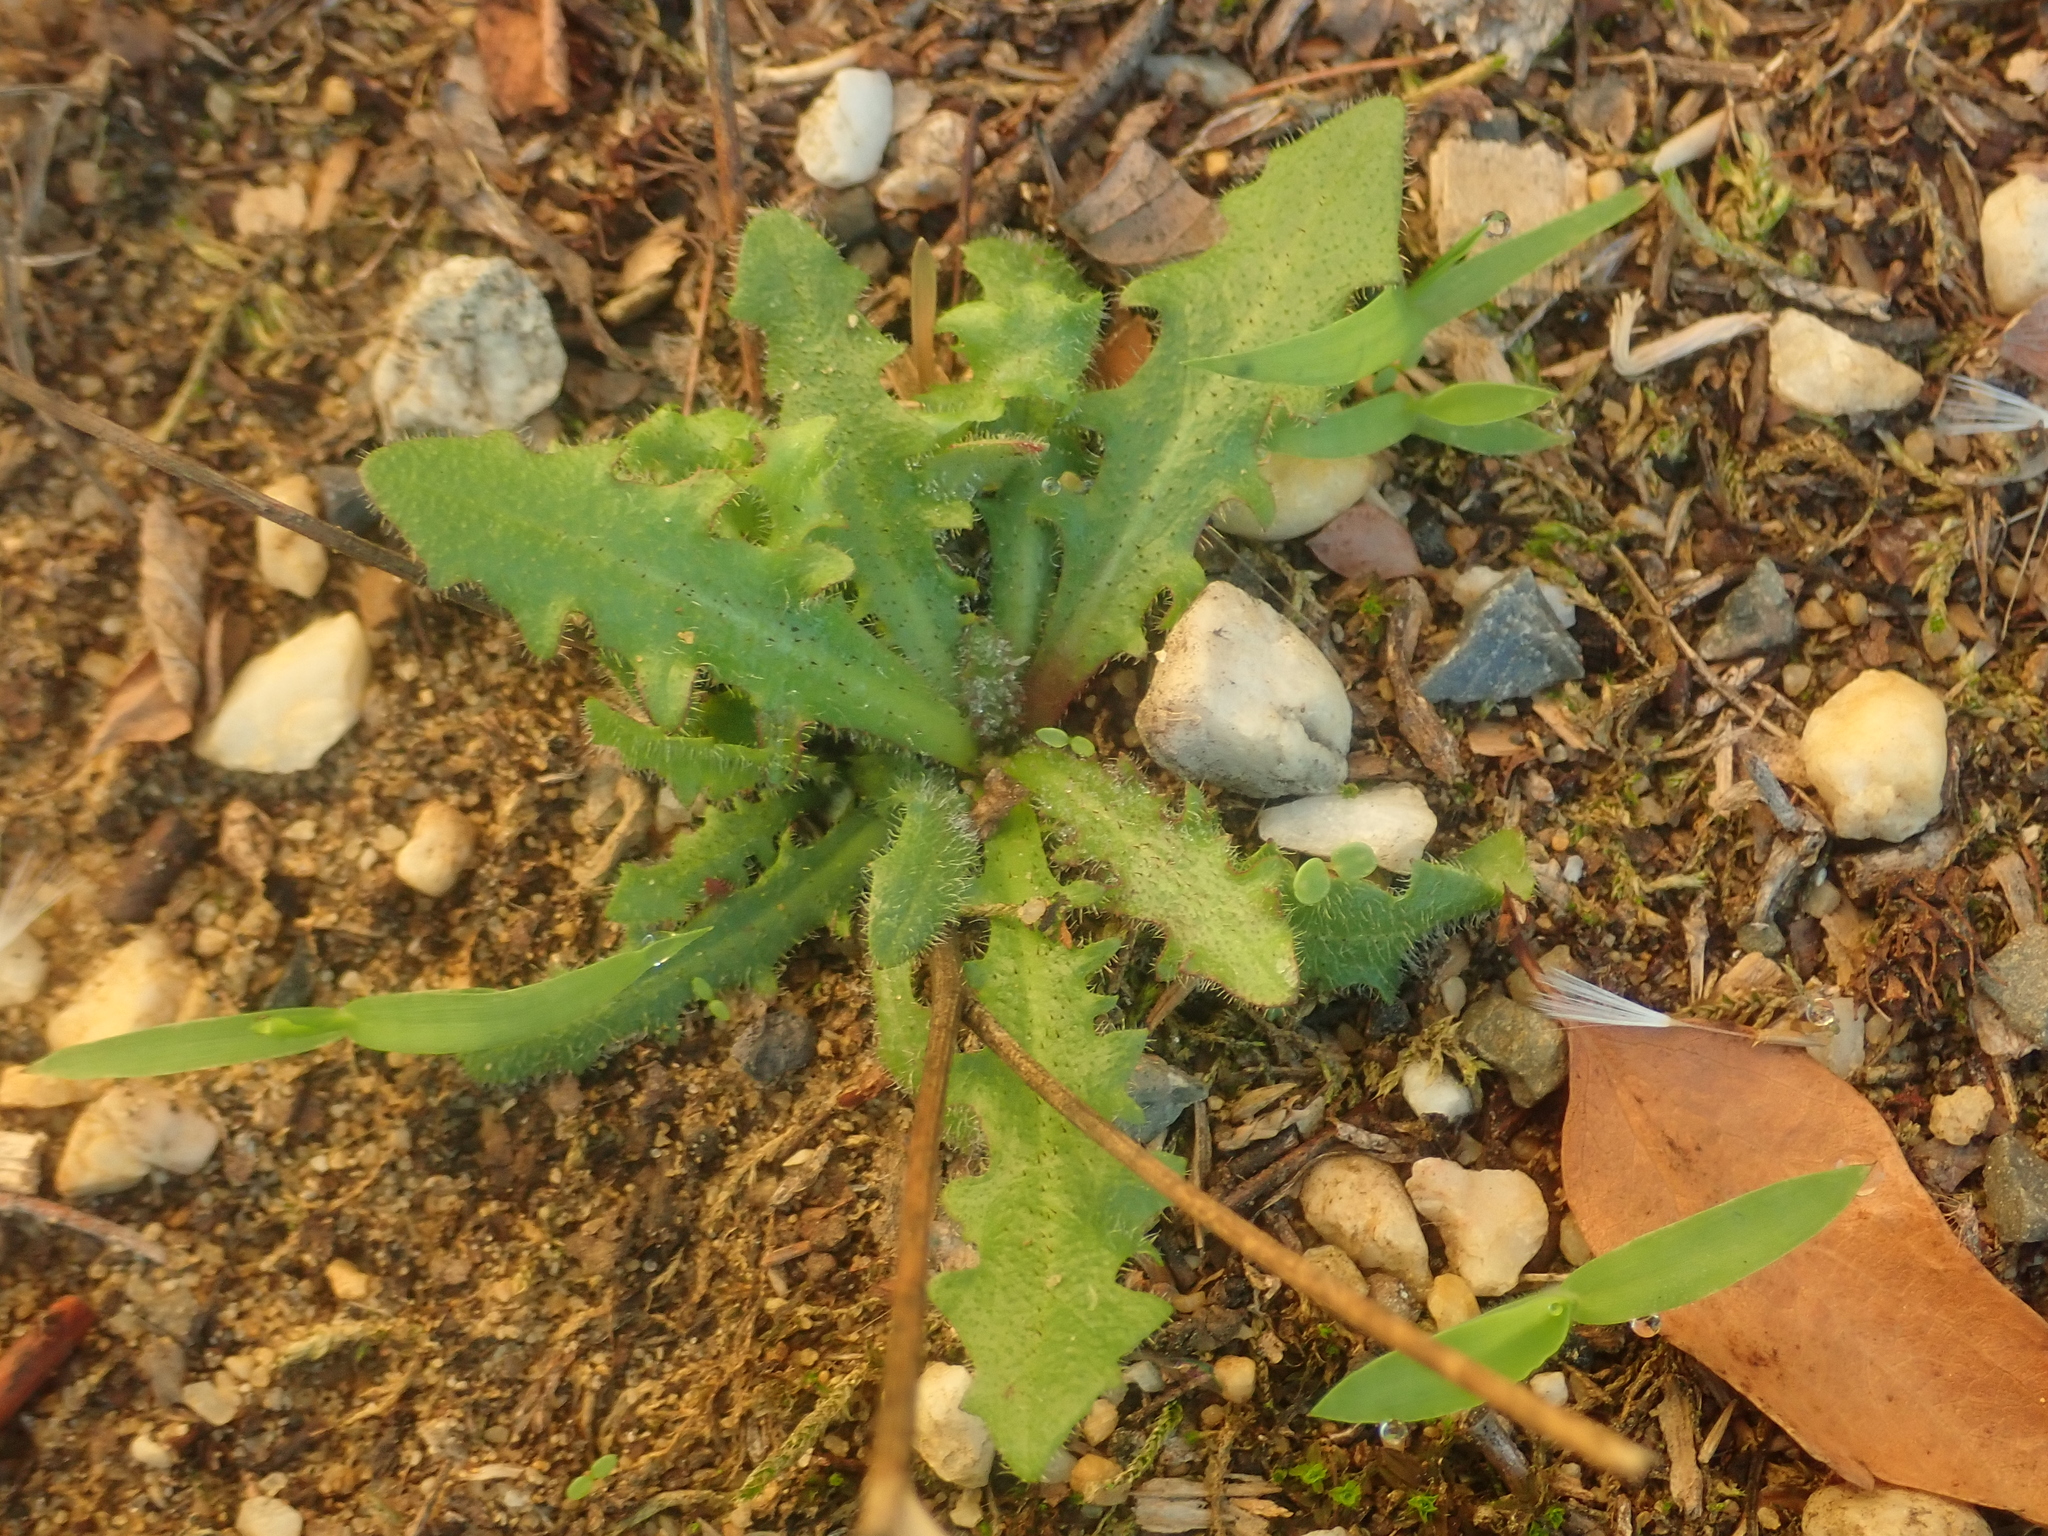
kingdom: Plantae
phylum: Tracheophyta
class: Magnoliopsida
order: Asterales
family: Asteraceae
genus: Hypochaeris
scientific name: Hypochaeris radicata
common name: Flatweed
